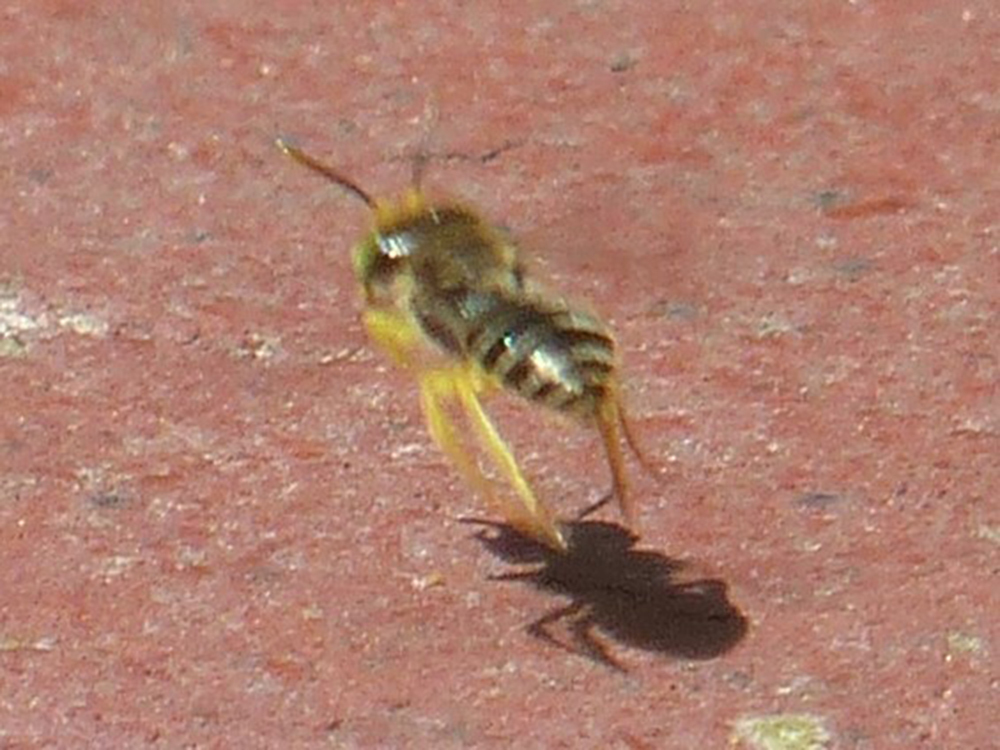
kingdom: Animalia
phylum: Arthropoda
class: Insecta
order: Hymenoptera
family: Andrenidae
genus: Calliopsis
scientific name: Calliopsis andreniformis
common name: Eastern calliopsis bee
